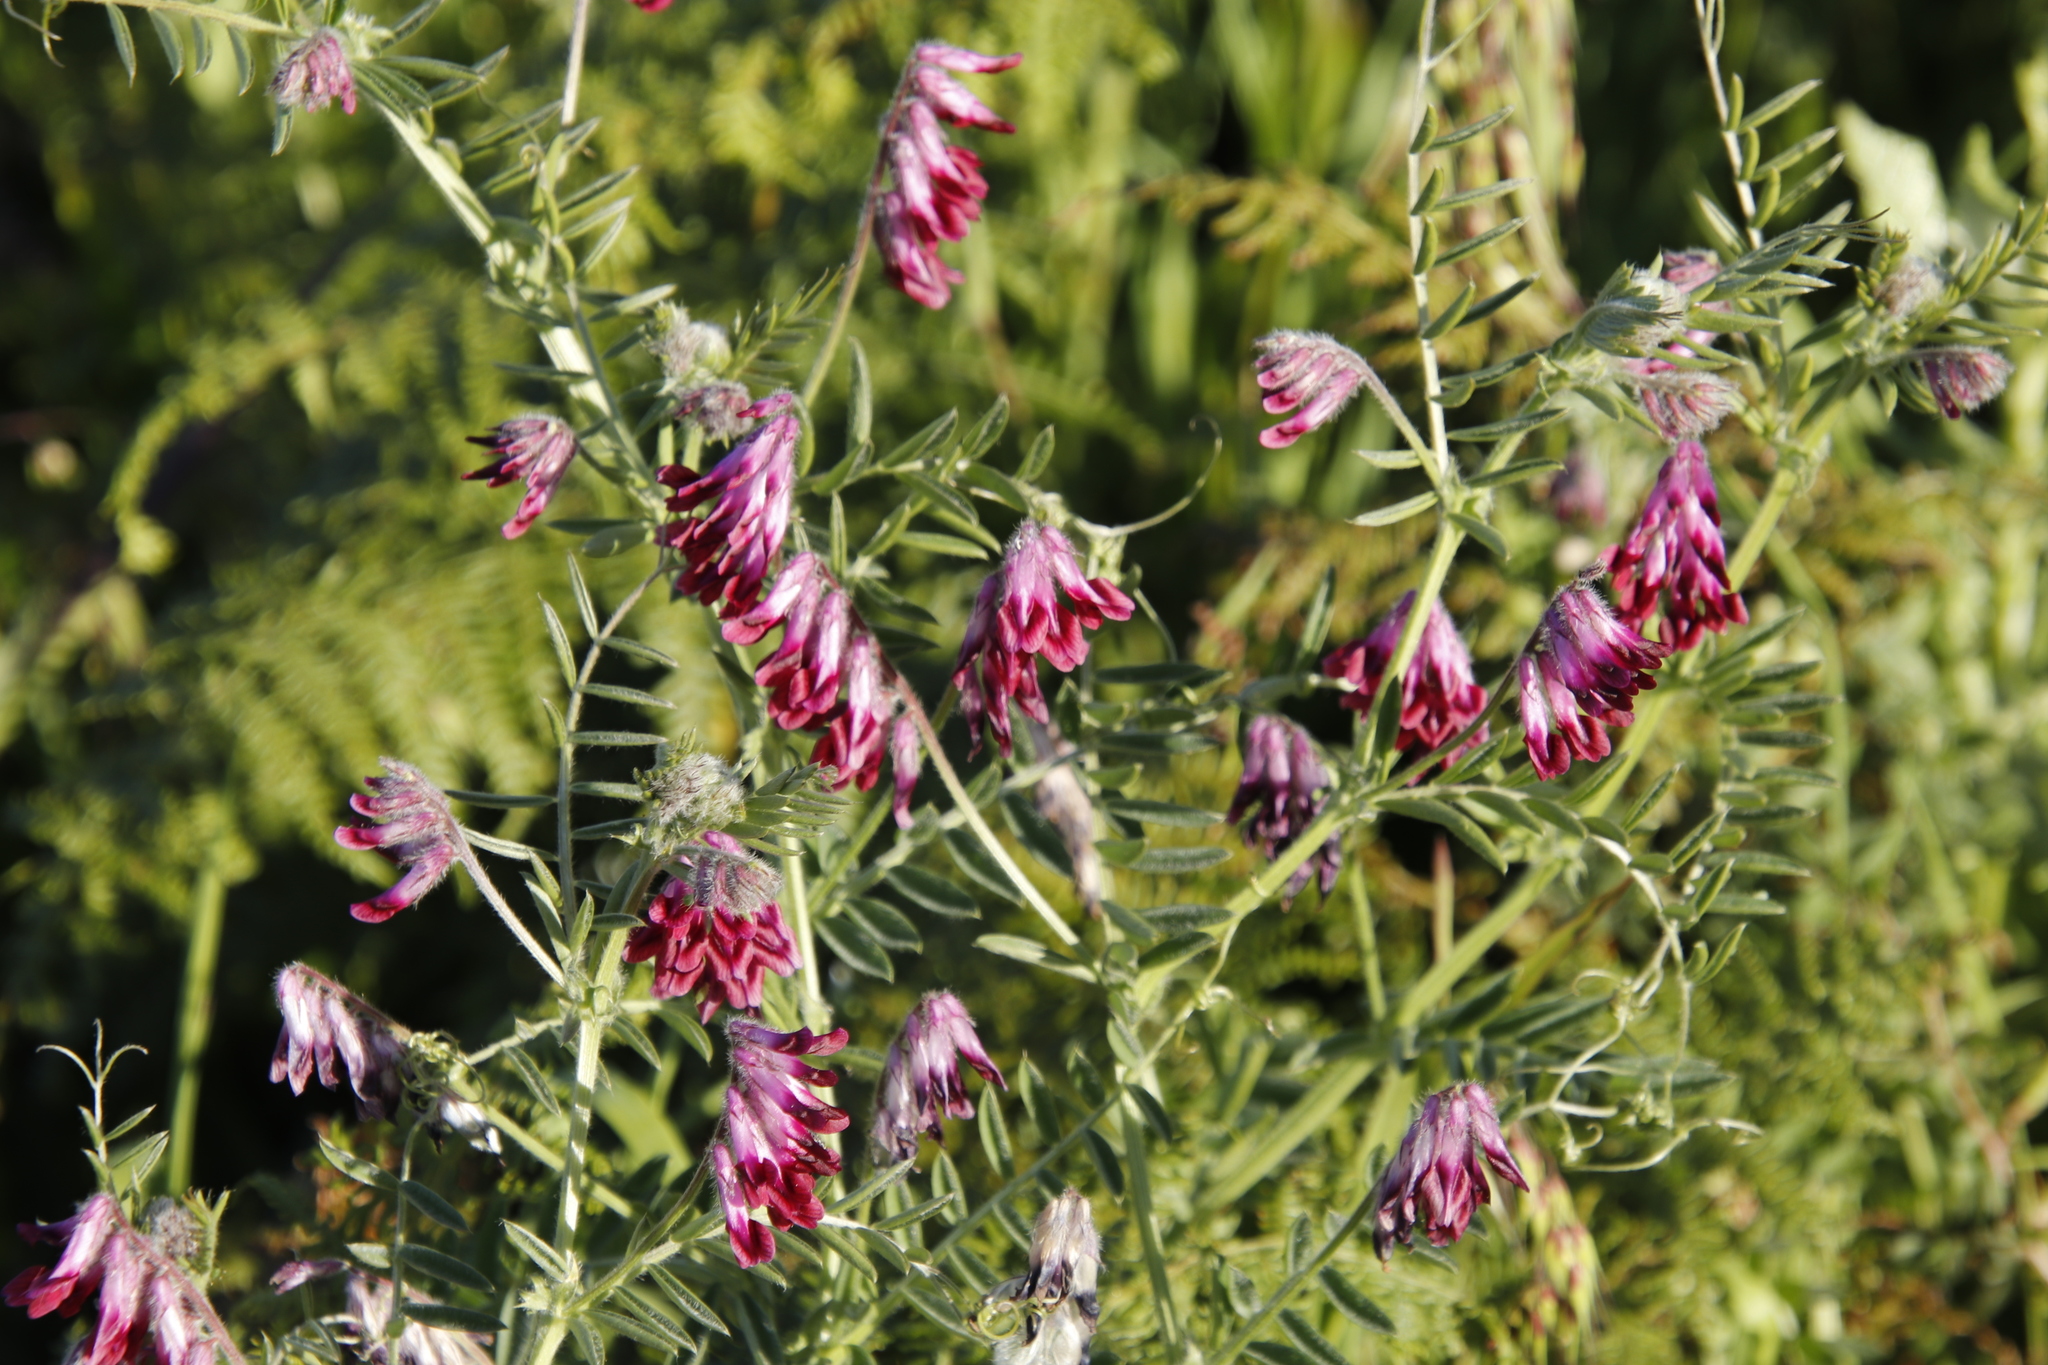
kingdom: Plantae
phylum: Tracheophyta
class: Magnoliopsida
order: Fabales
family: Fabaceae
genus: Vicia
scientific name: Vicia benghalensis
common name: Purple vetch
